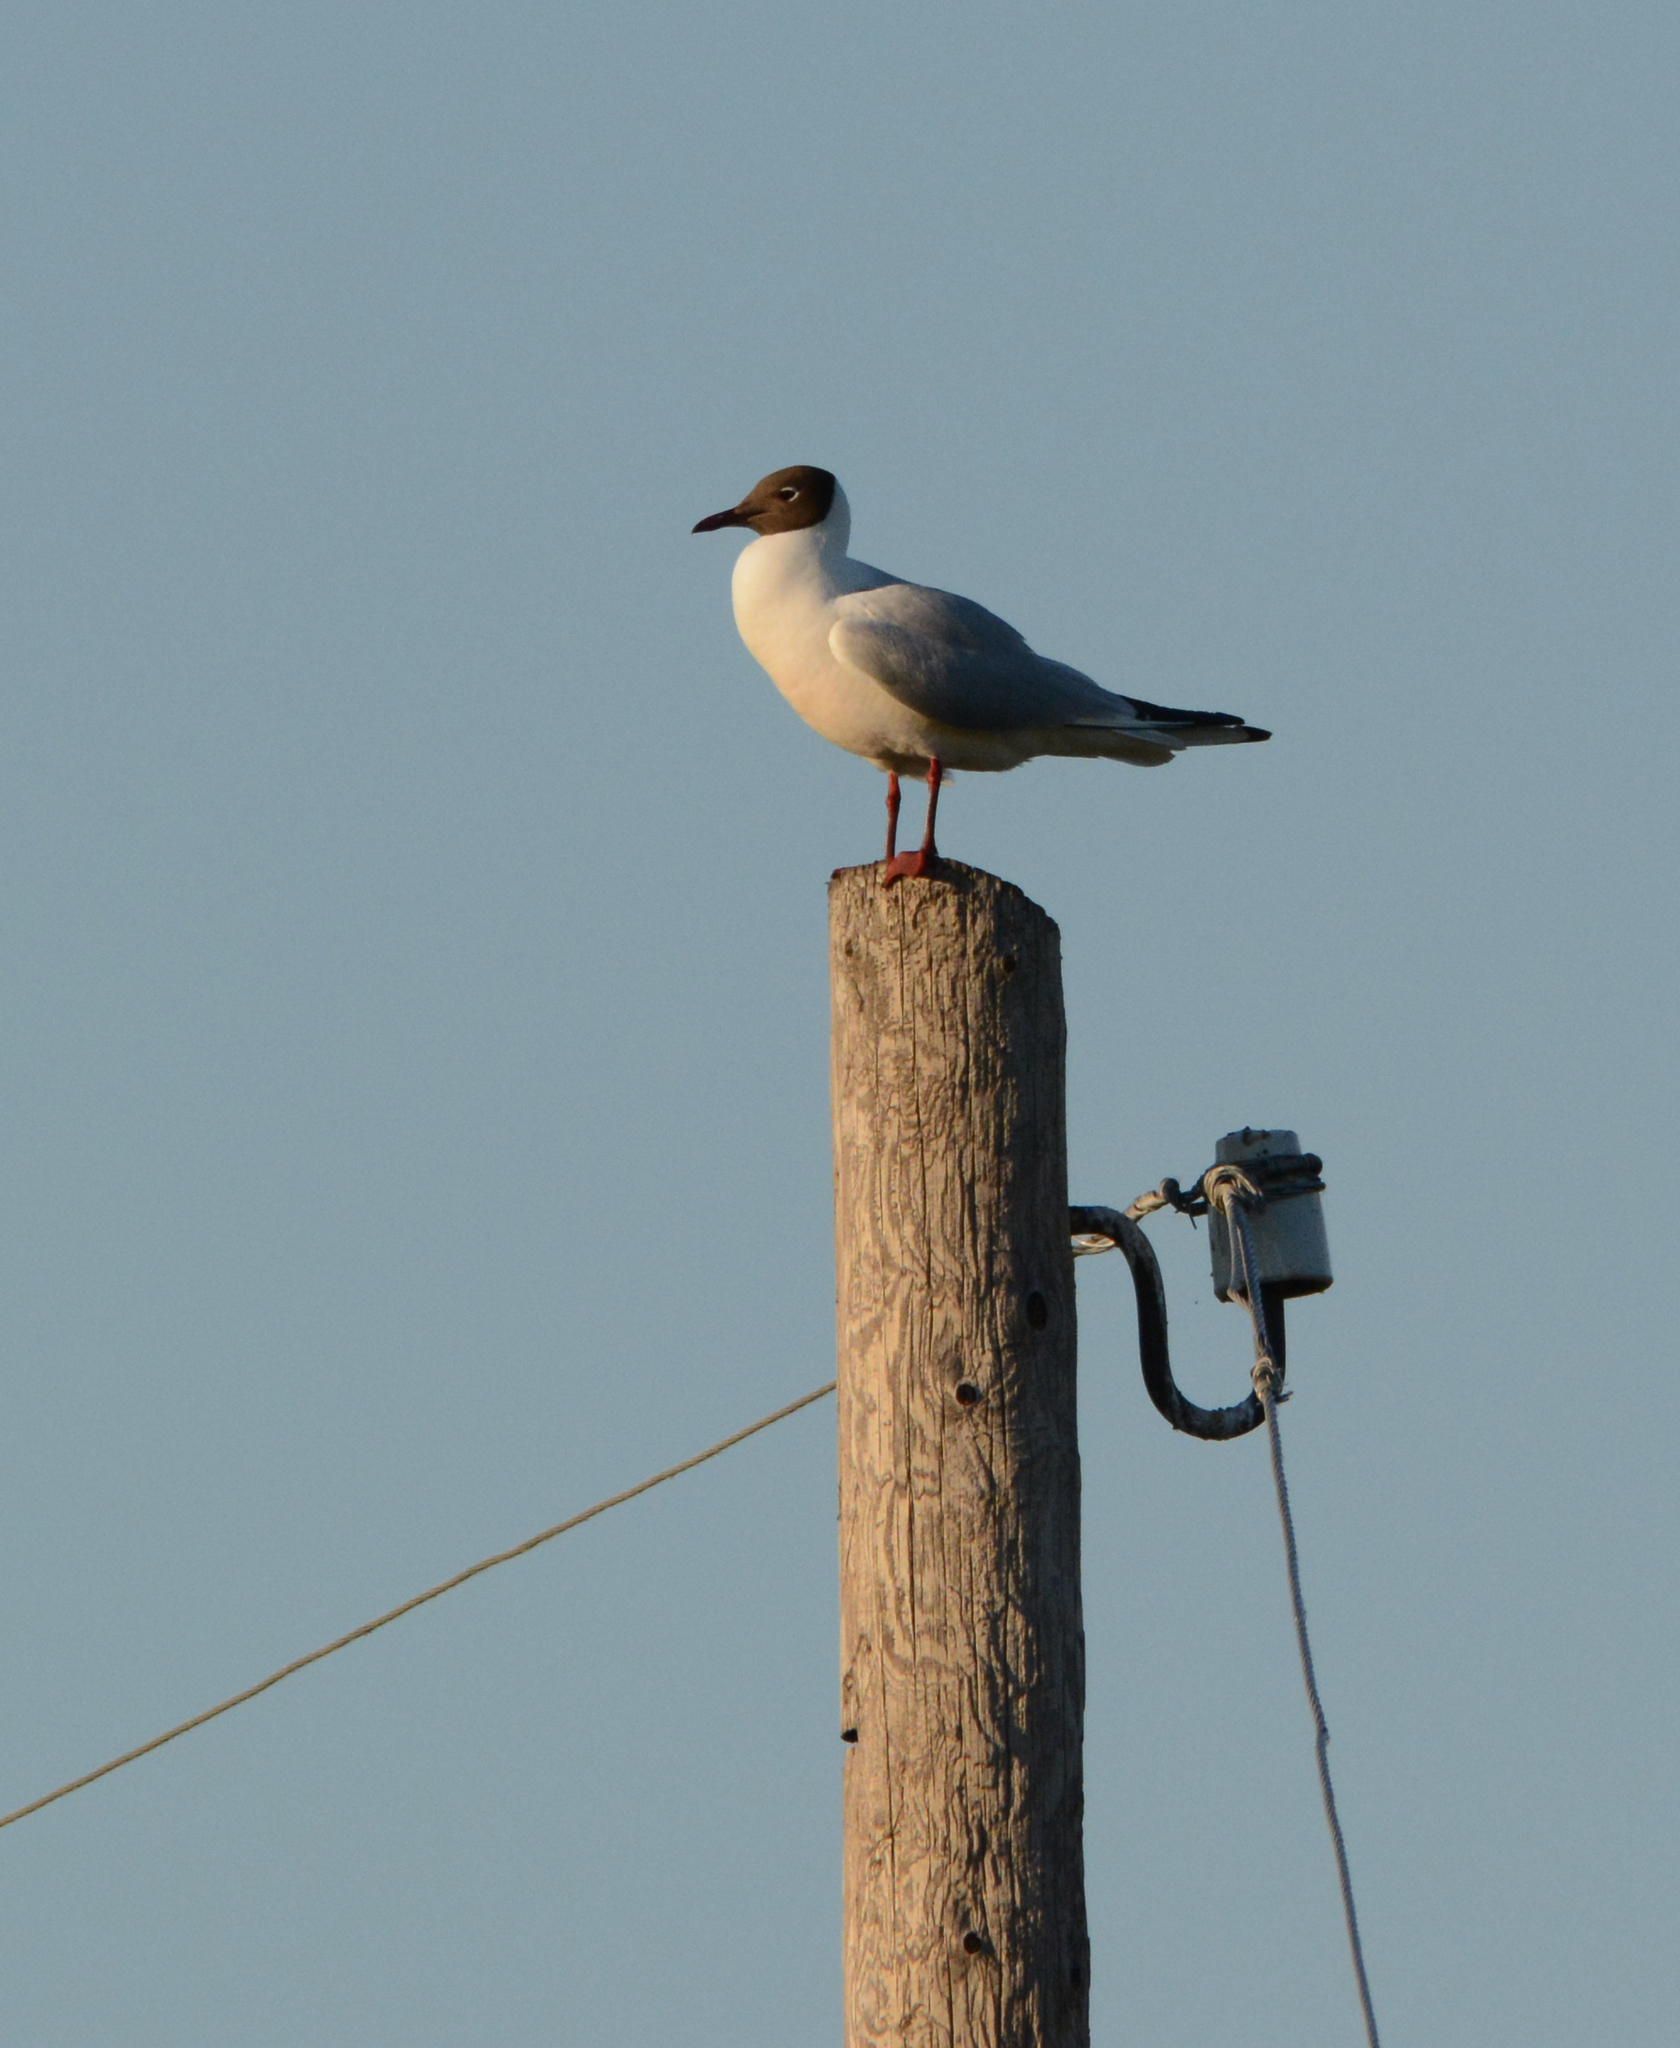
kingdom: Animalia
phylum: Chordata
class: Aves
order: Charadriiformes
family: Laridae
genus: Chroicocephalus
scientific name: Chroicocephalus ridibundus
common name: Black-headed gull
